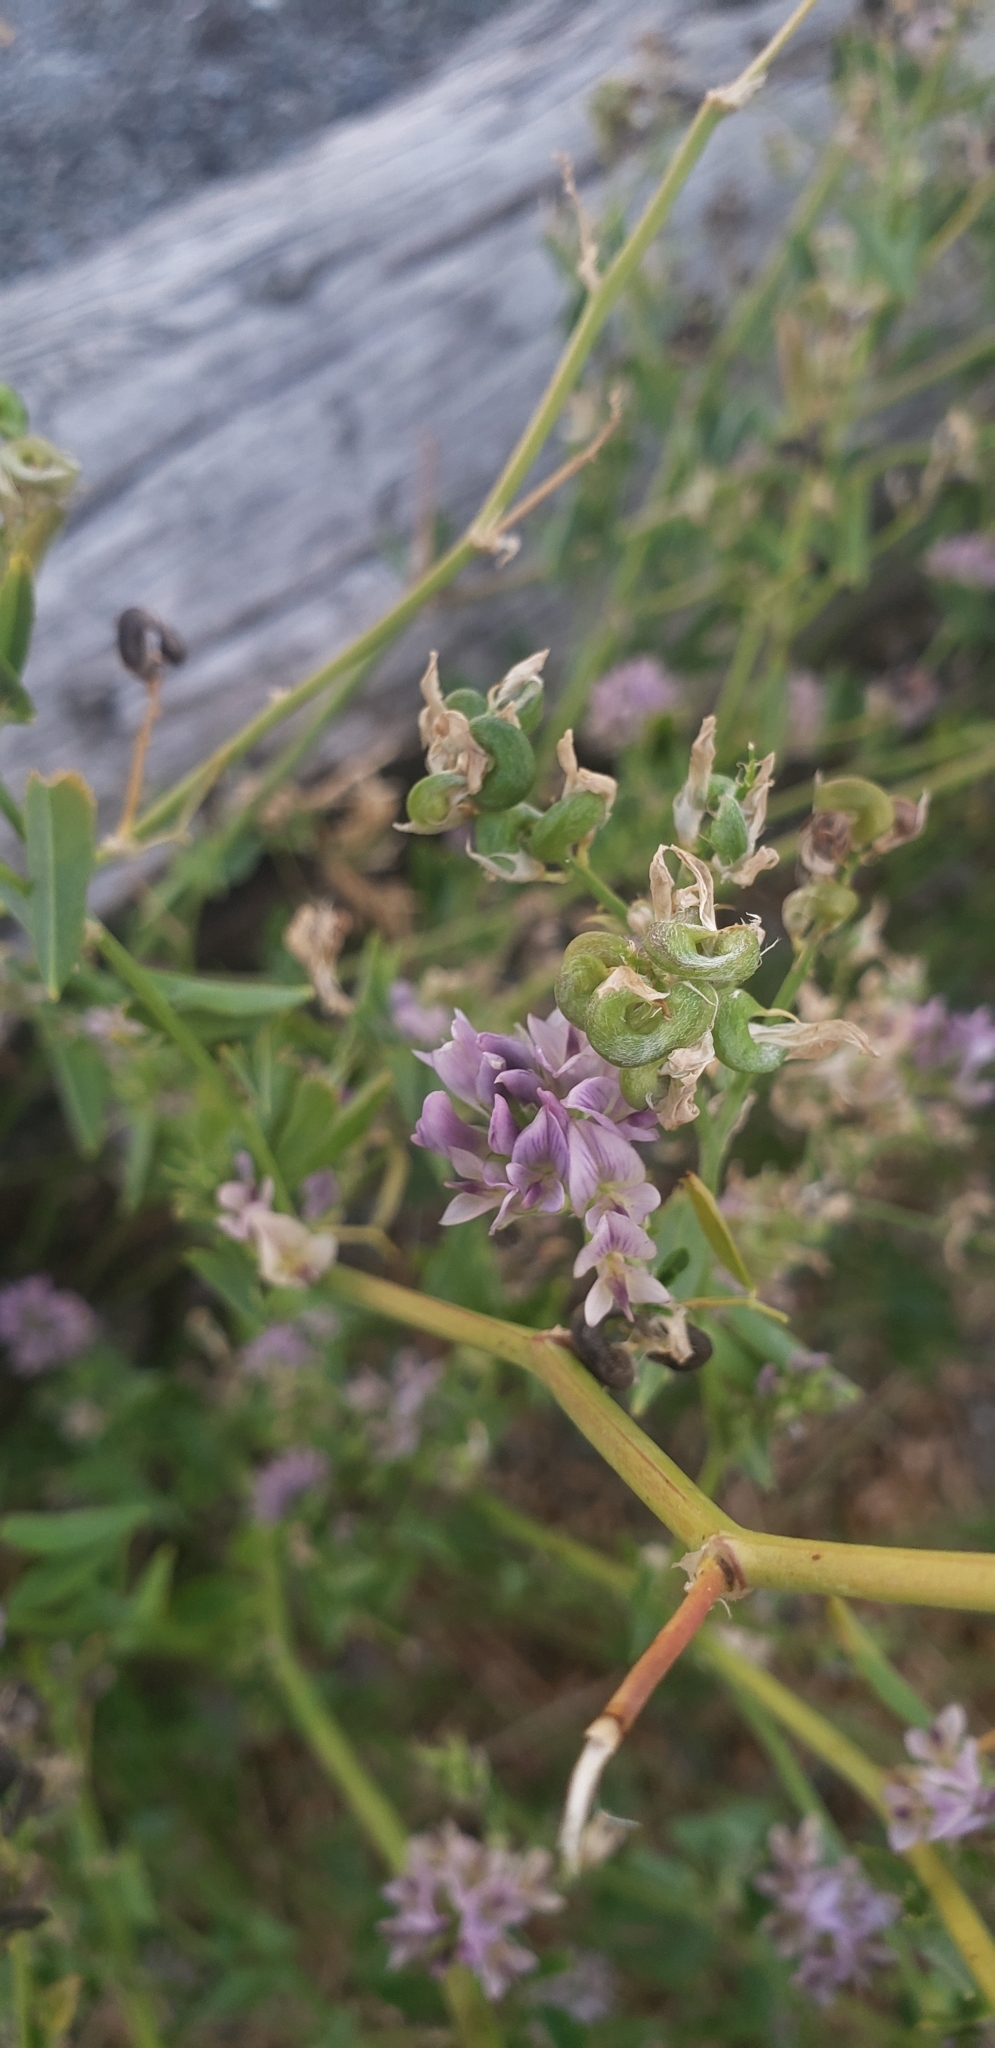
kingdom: Plantae
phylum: Tracheophyta
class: Magnoliopsida
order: Fabales
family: Fabaceae
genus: Medicago
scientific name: Medicago sativa
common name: Alfalfa
